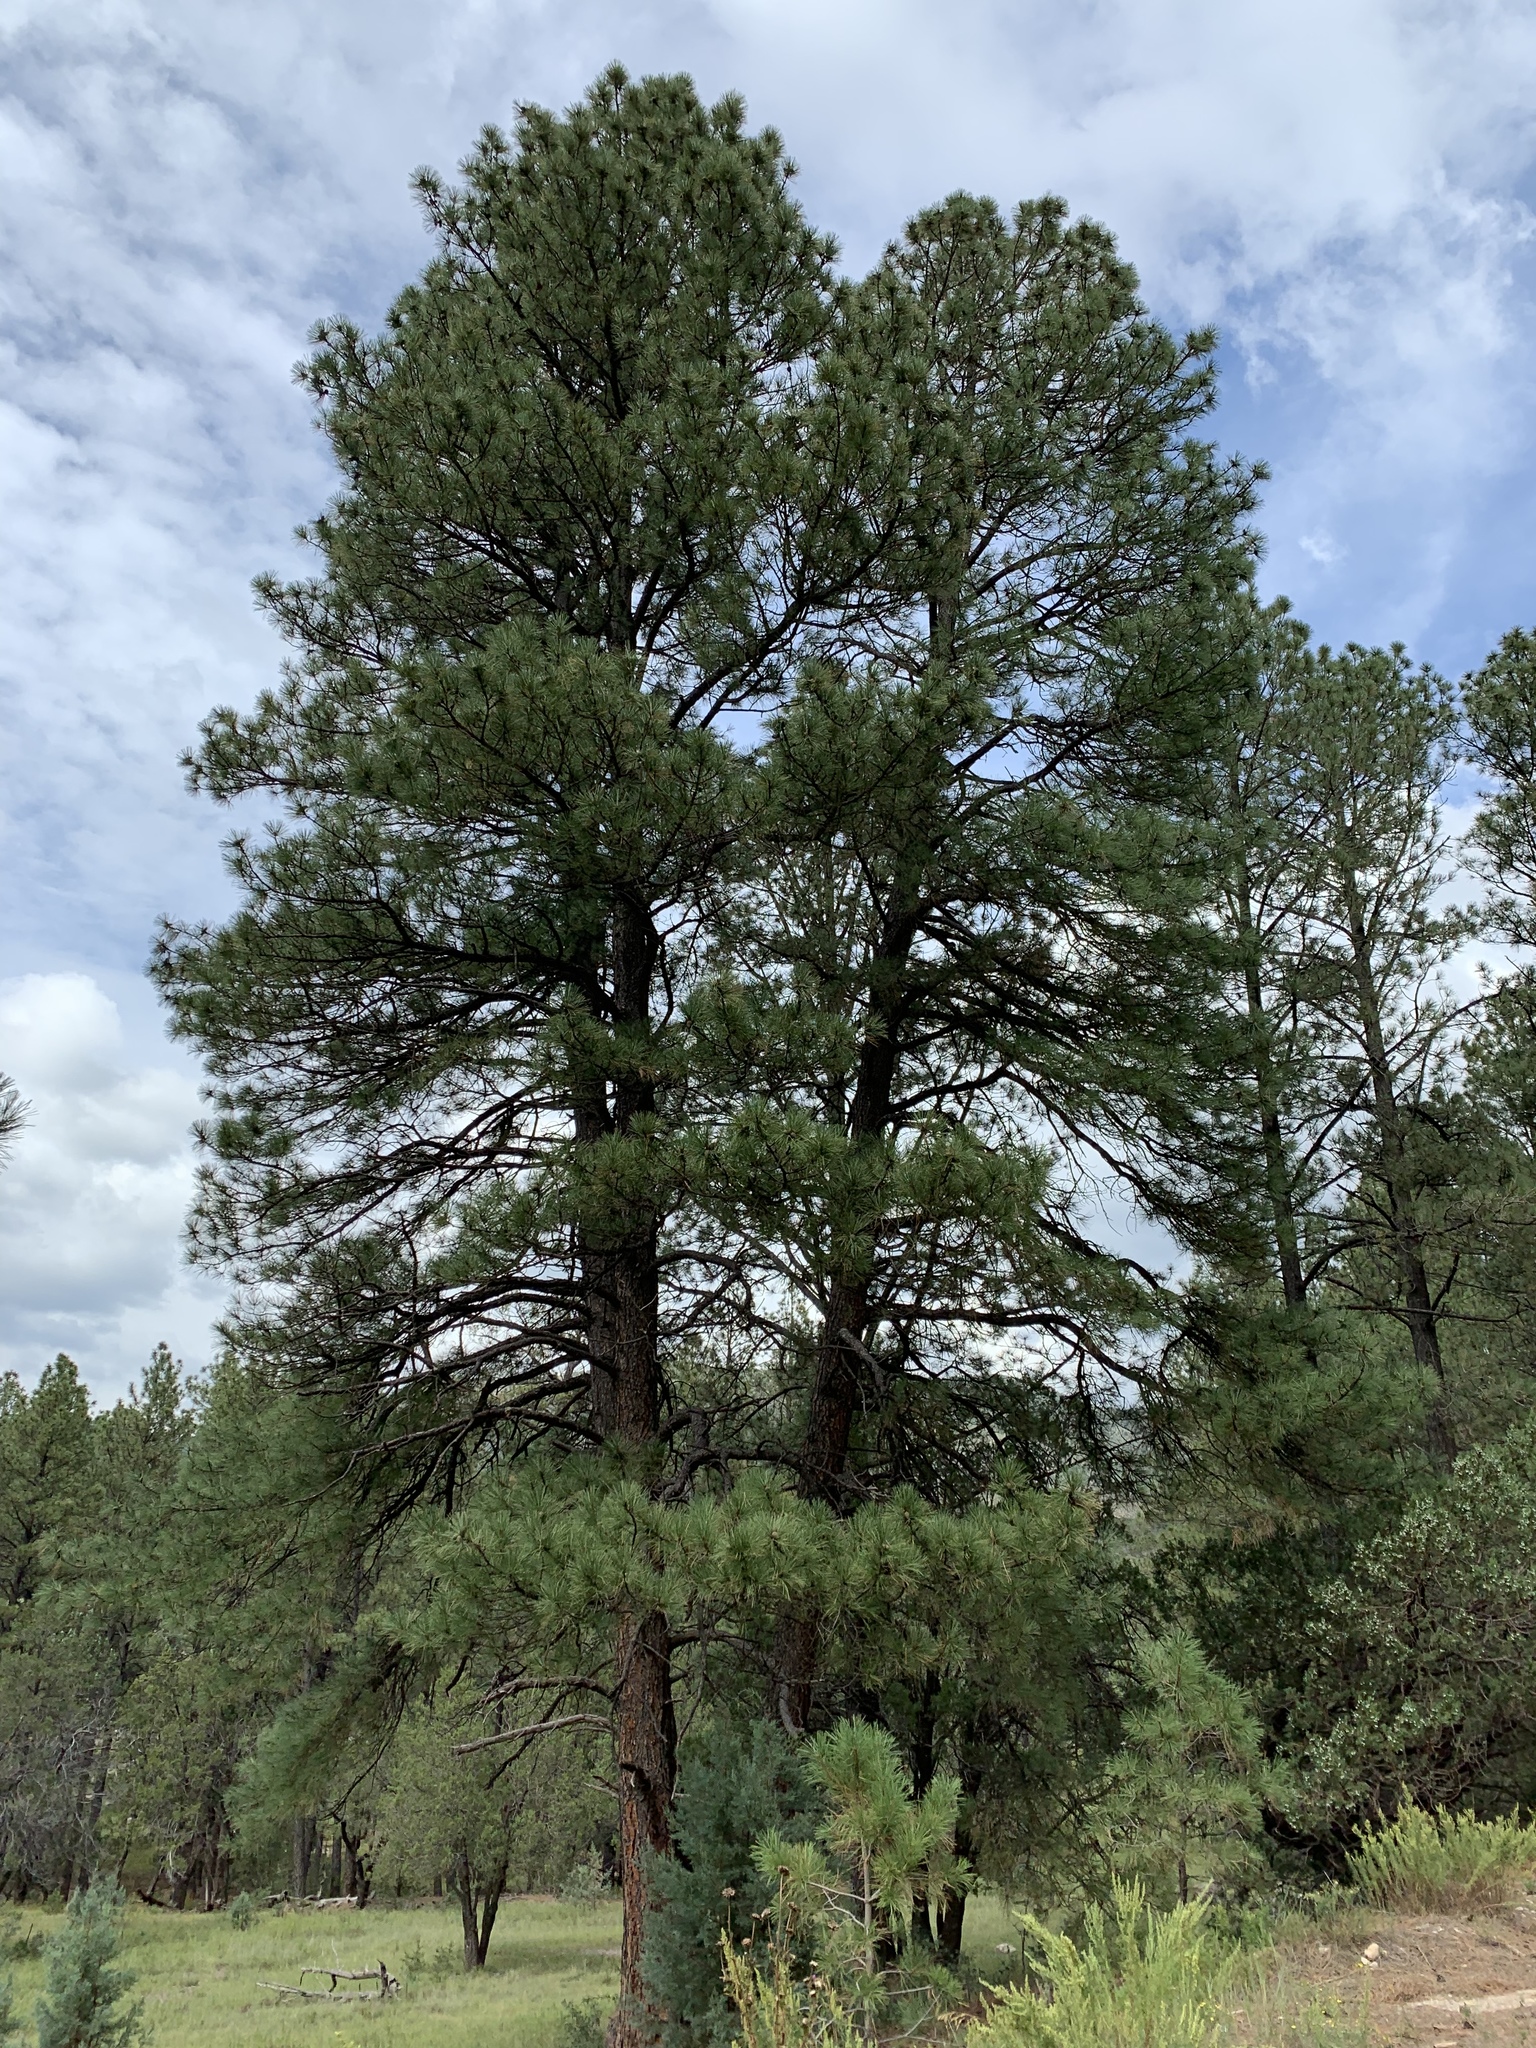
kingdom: Plantae
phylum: Tracheophyta
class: Pinopsida
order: Pinales
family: Pinaceae
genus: Pinus
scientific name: Pinus ponderosa
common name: Western yellow-pine
